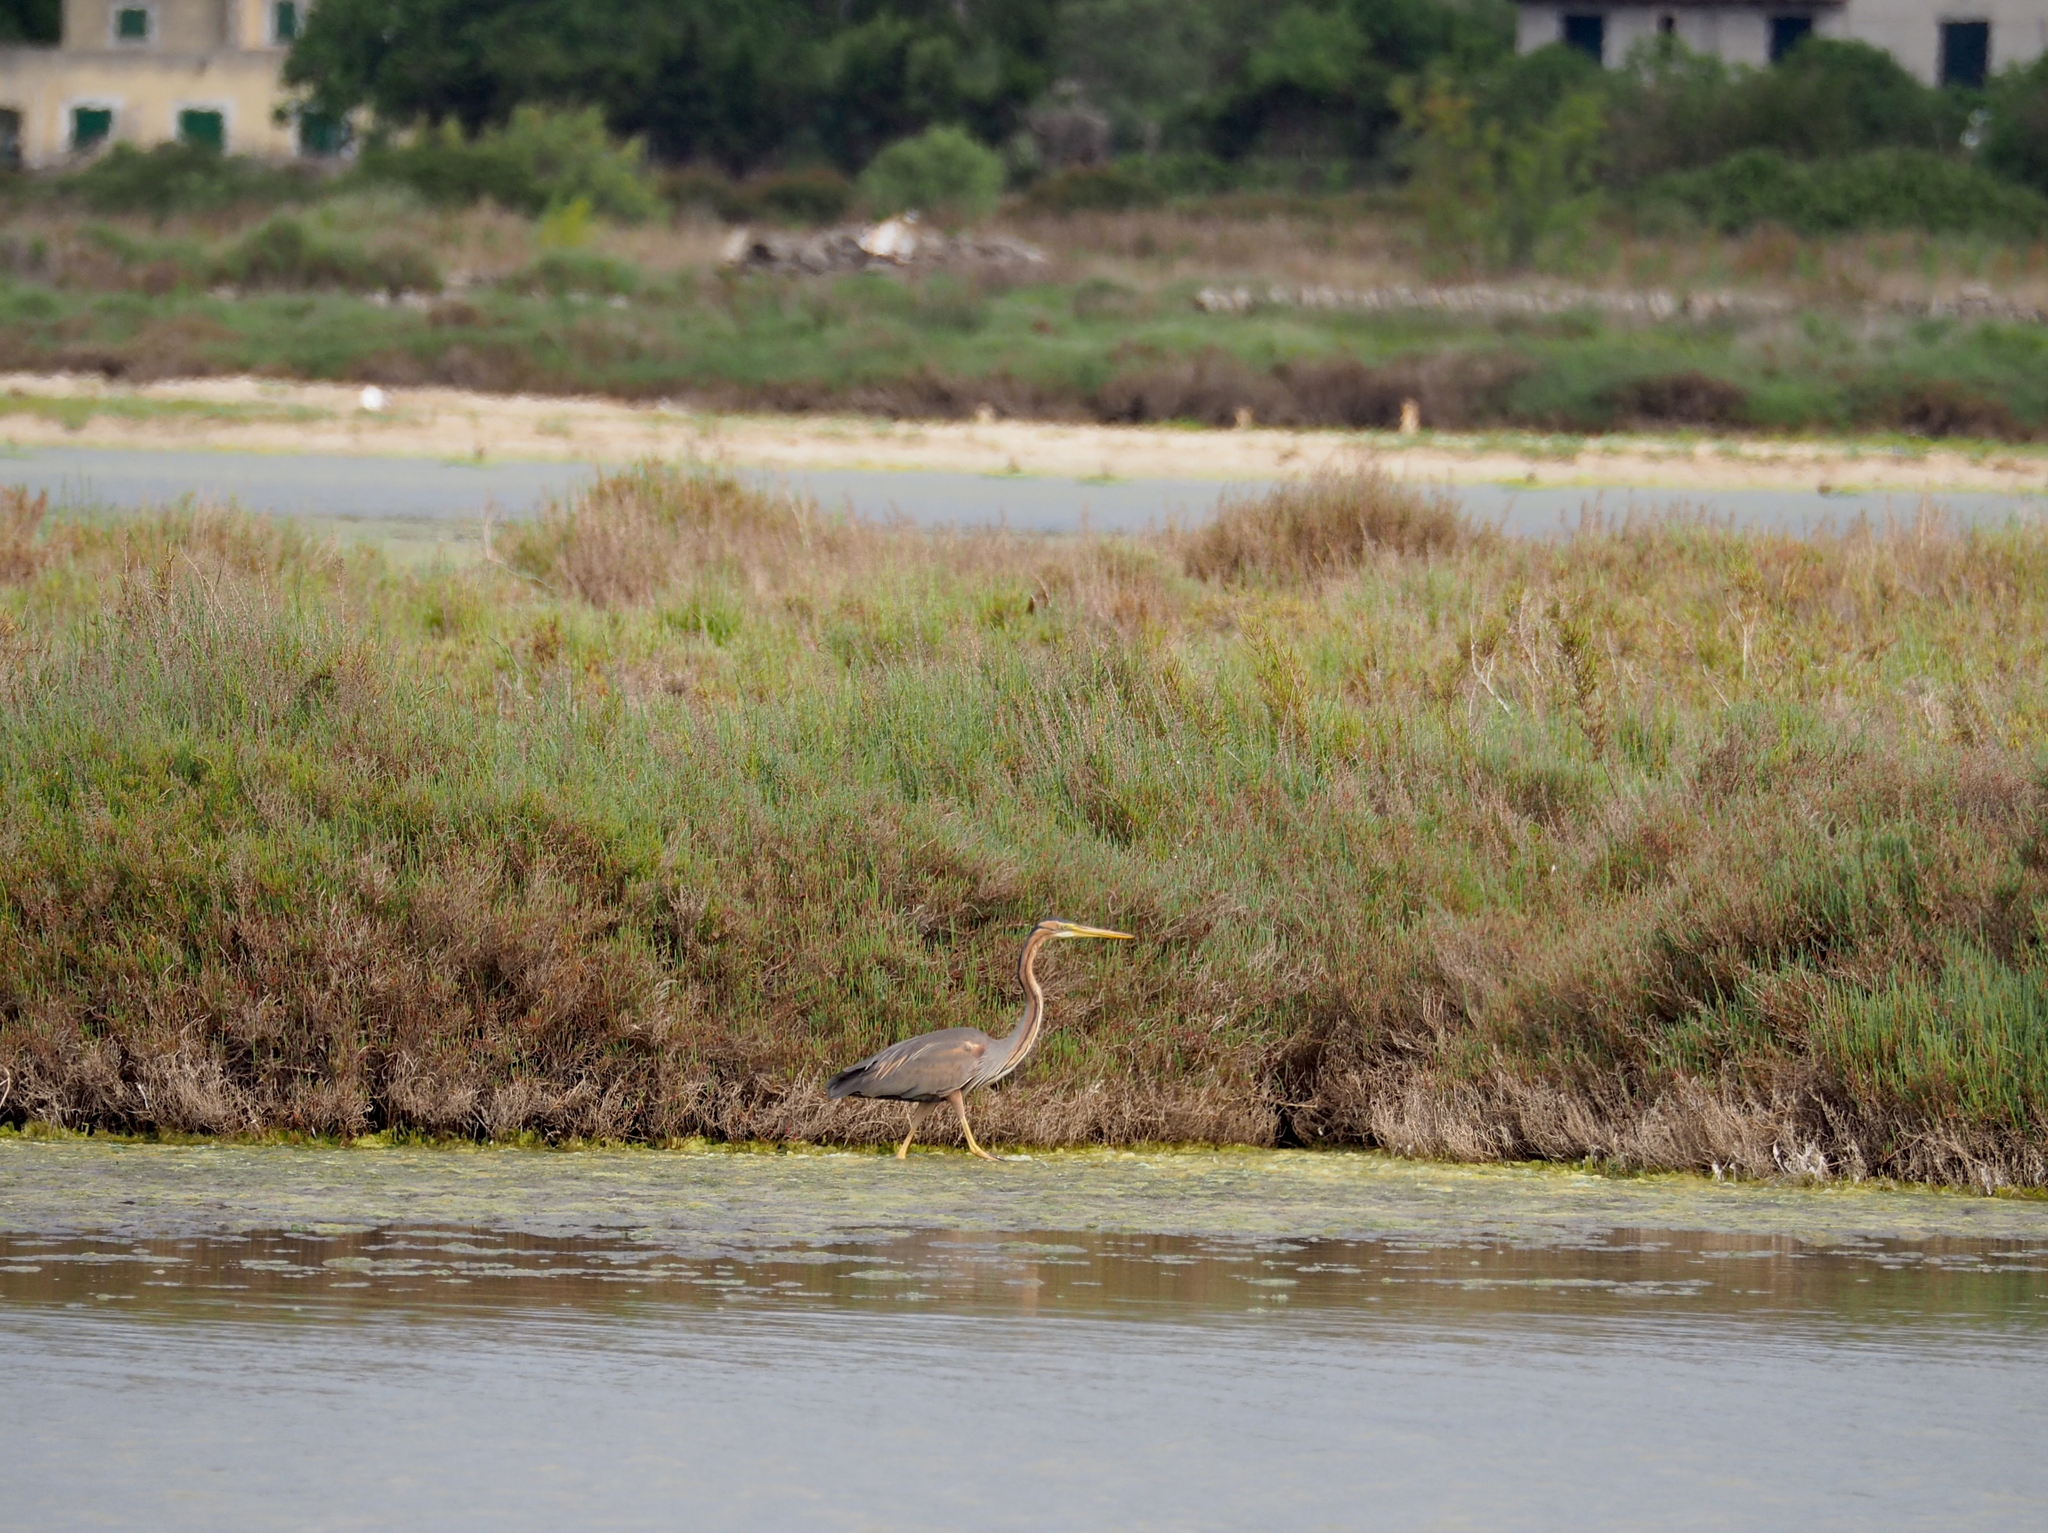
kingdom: Animalia
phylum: Chordata
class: Aves
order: Pelecaniformes
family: Ardeidae
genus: Ardea
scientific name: Ardea purpurea
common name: Purple heron
